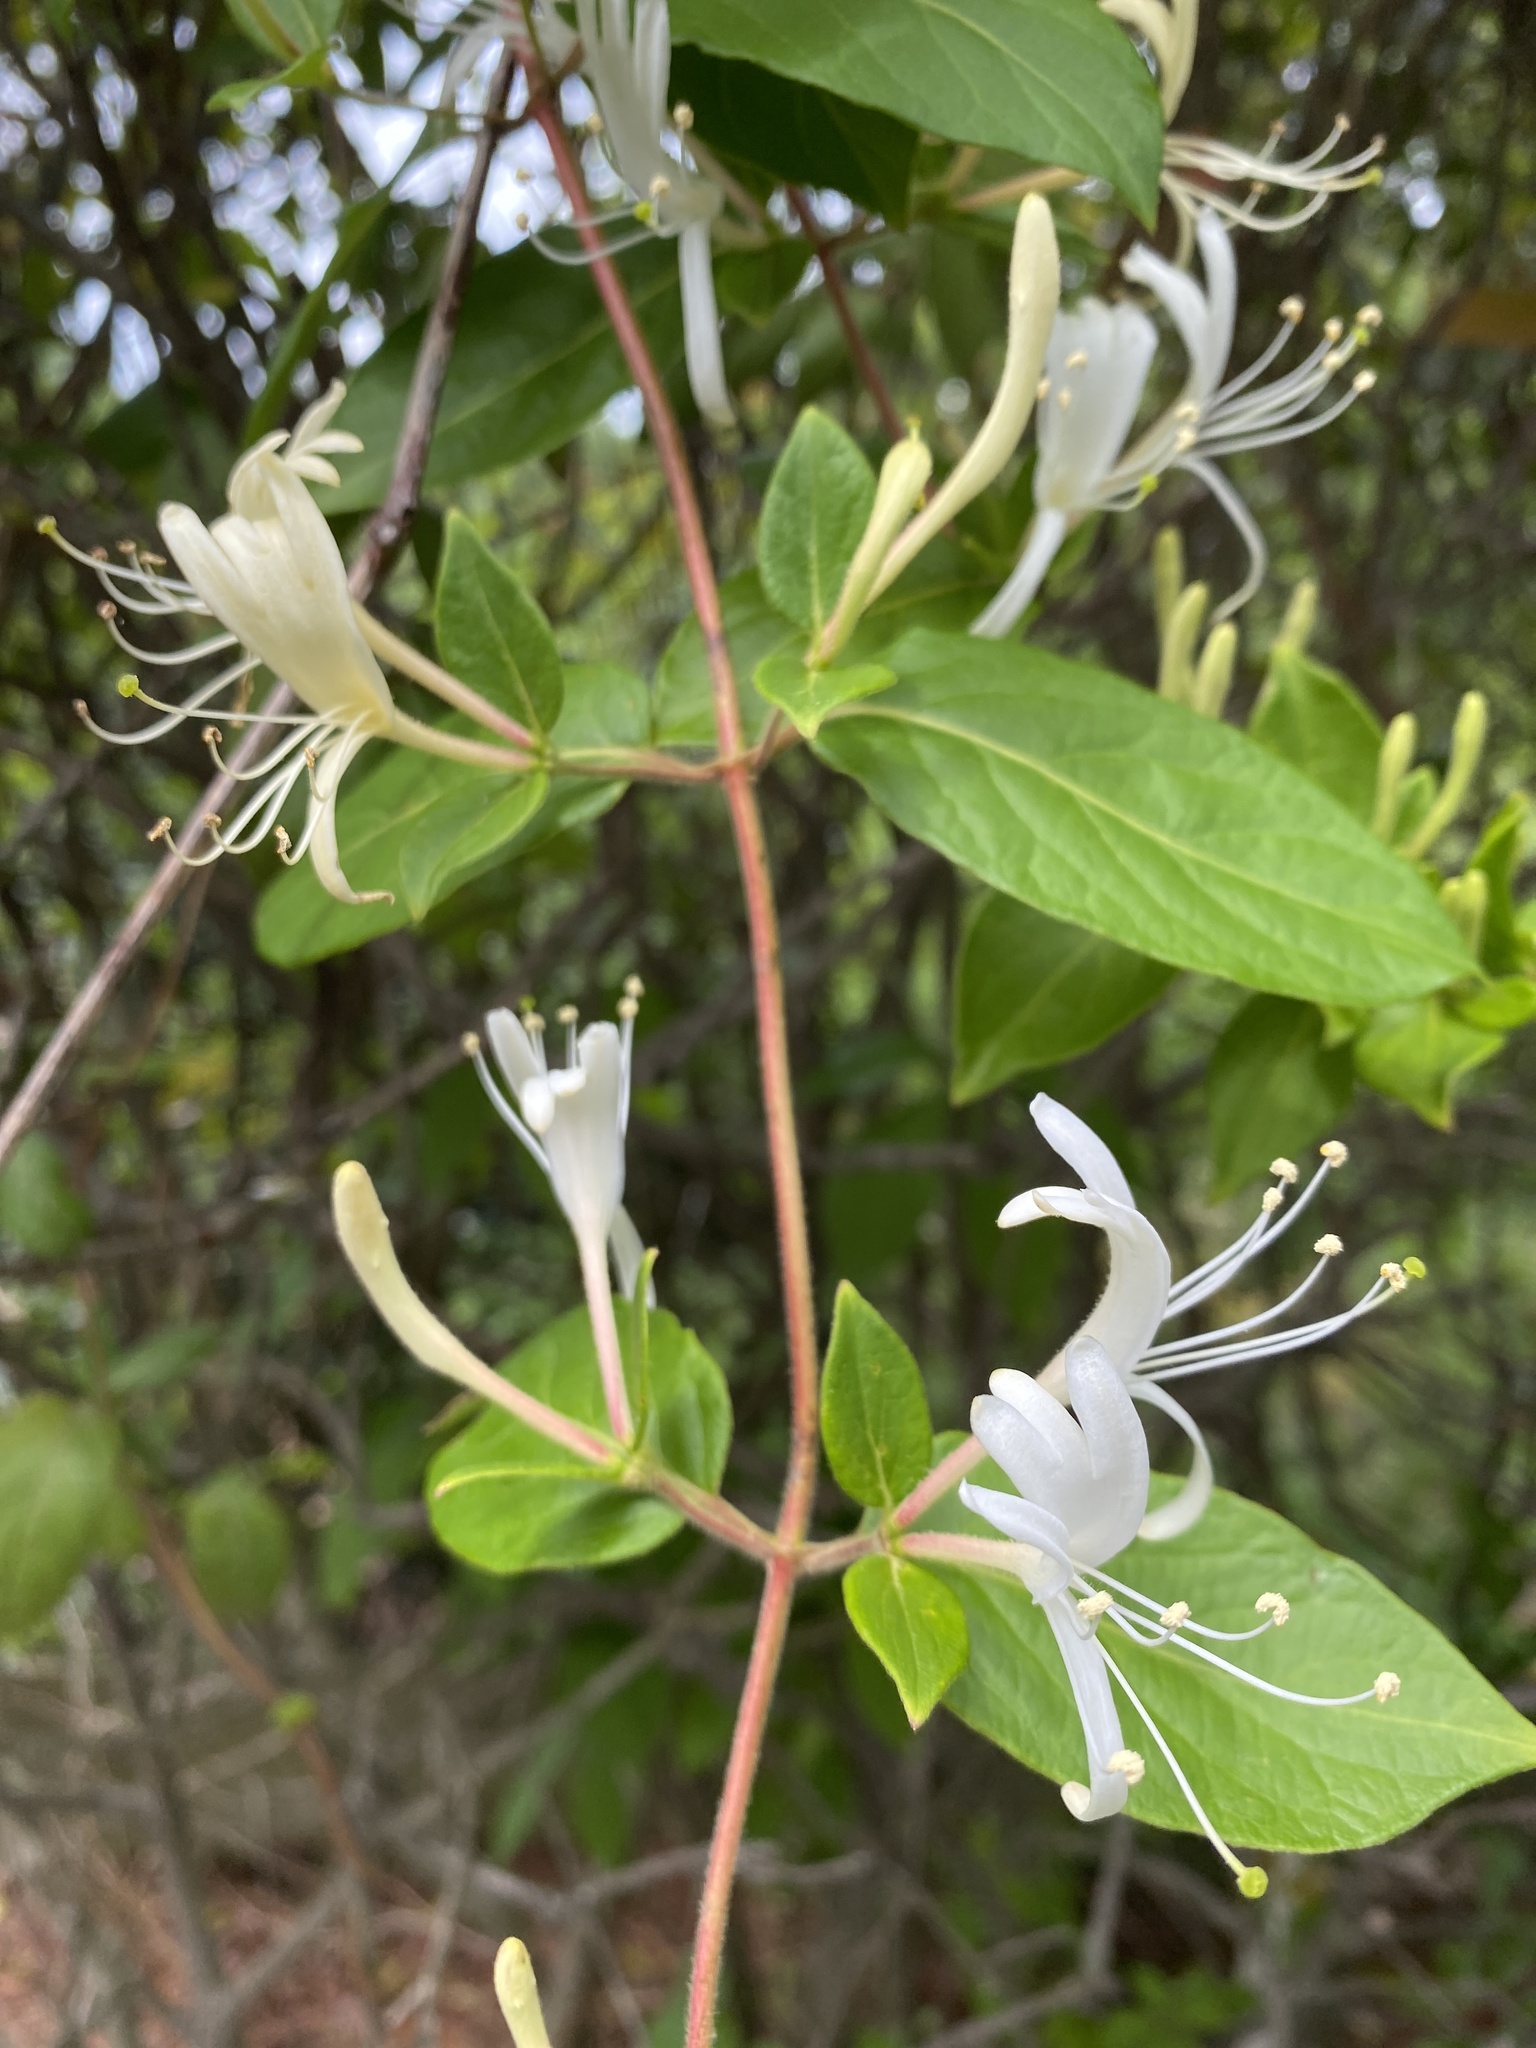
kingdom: Plantae
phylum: Tracheophyta
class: Magnoliopsida
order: Dipsacales
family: Caprifoliaceae
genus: Lonicera
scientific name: Lonicera japonica
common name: Japanese honeysuckle
